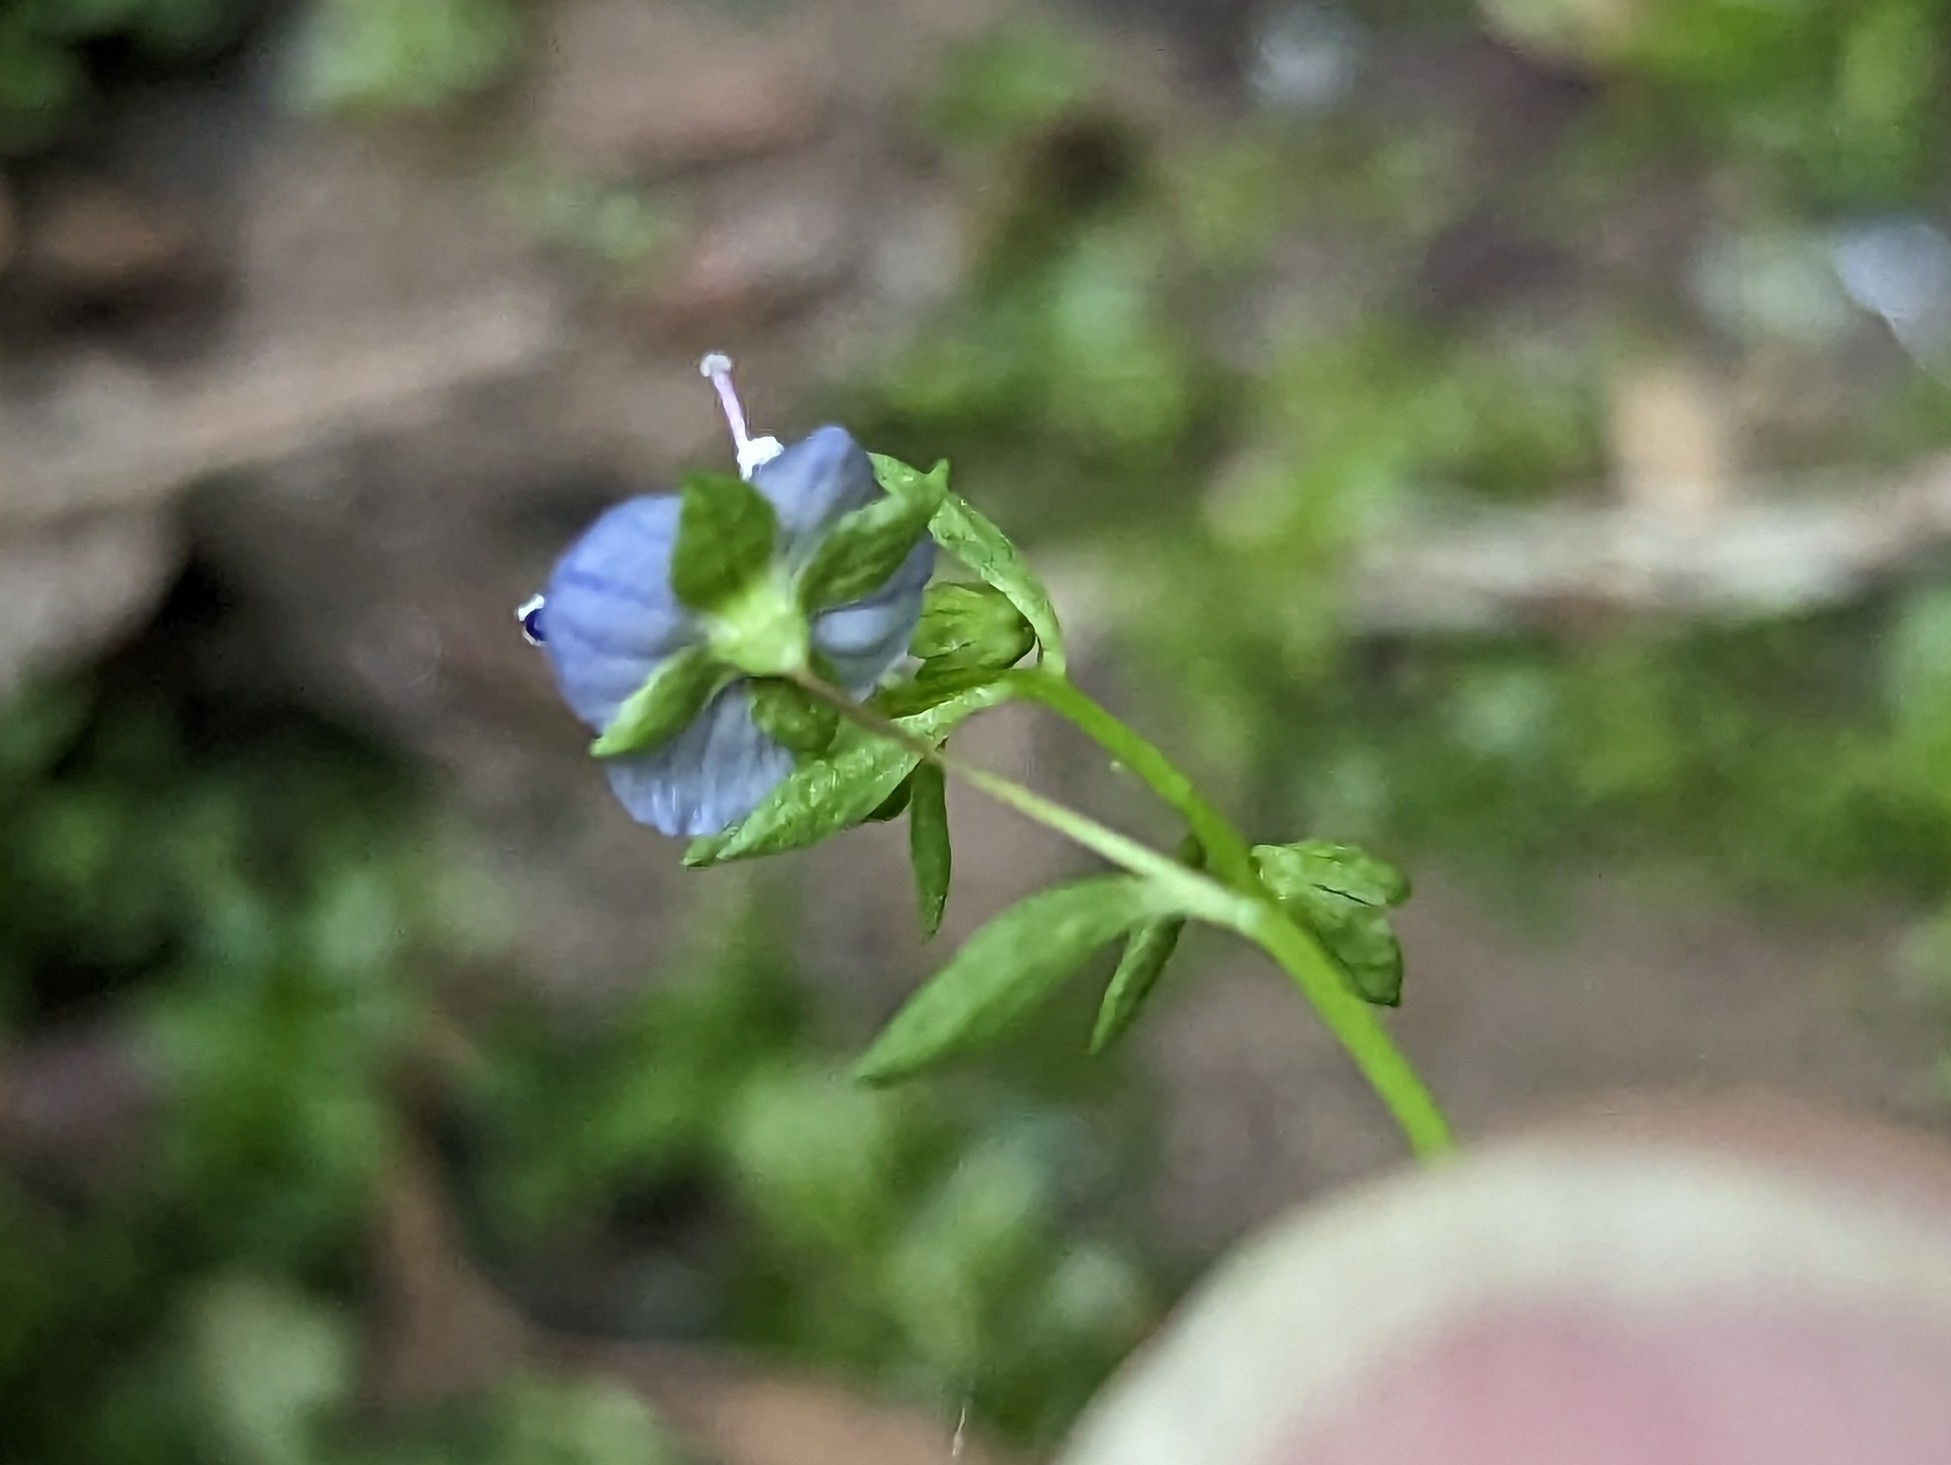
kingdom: Plantae
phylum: Tracheophyta
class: Magnoliopsida
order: Lamiales
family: Plantaginaceae
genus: Veronica
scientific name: Veronica americana
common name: American brooklime
